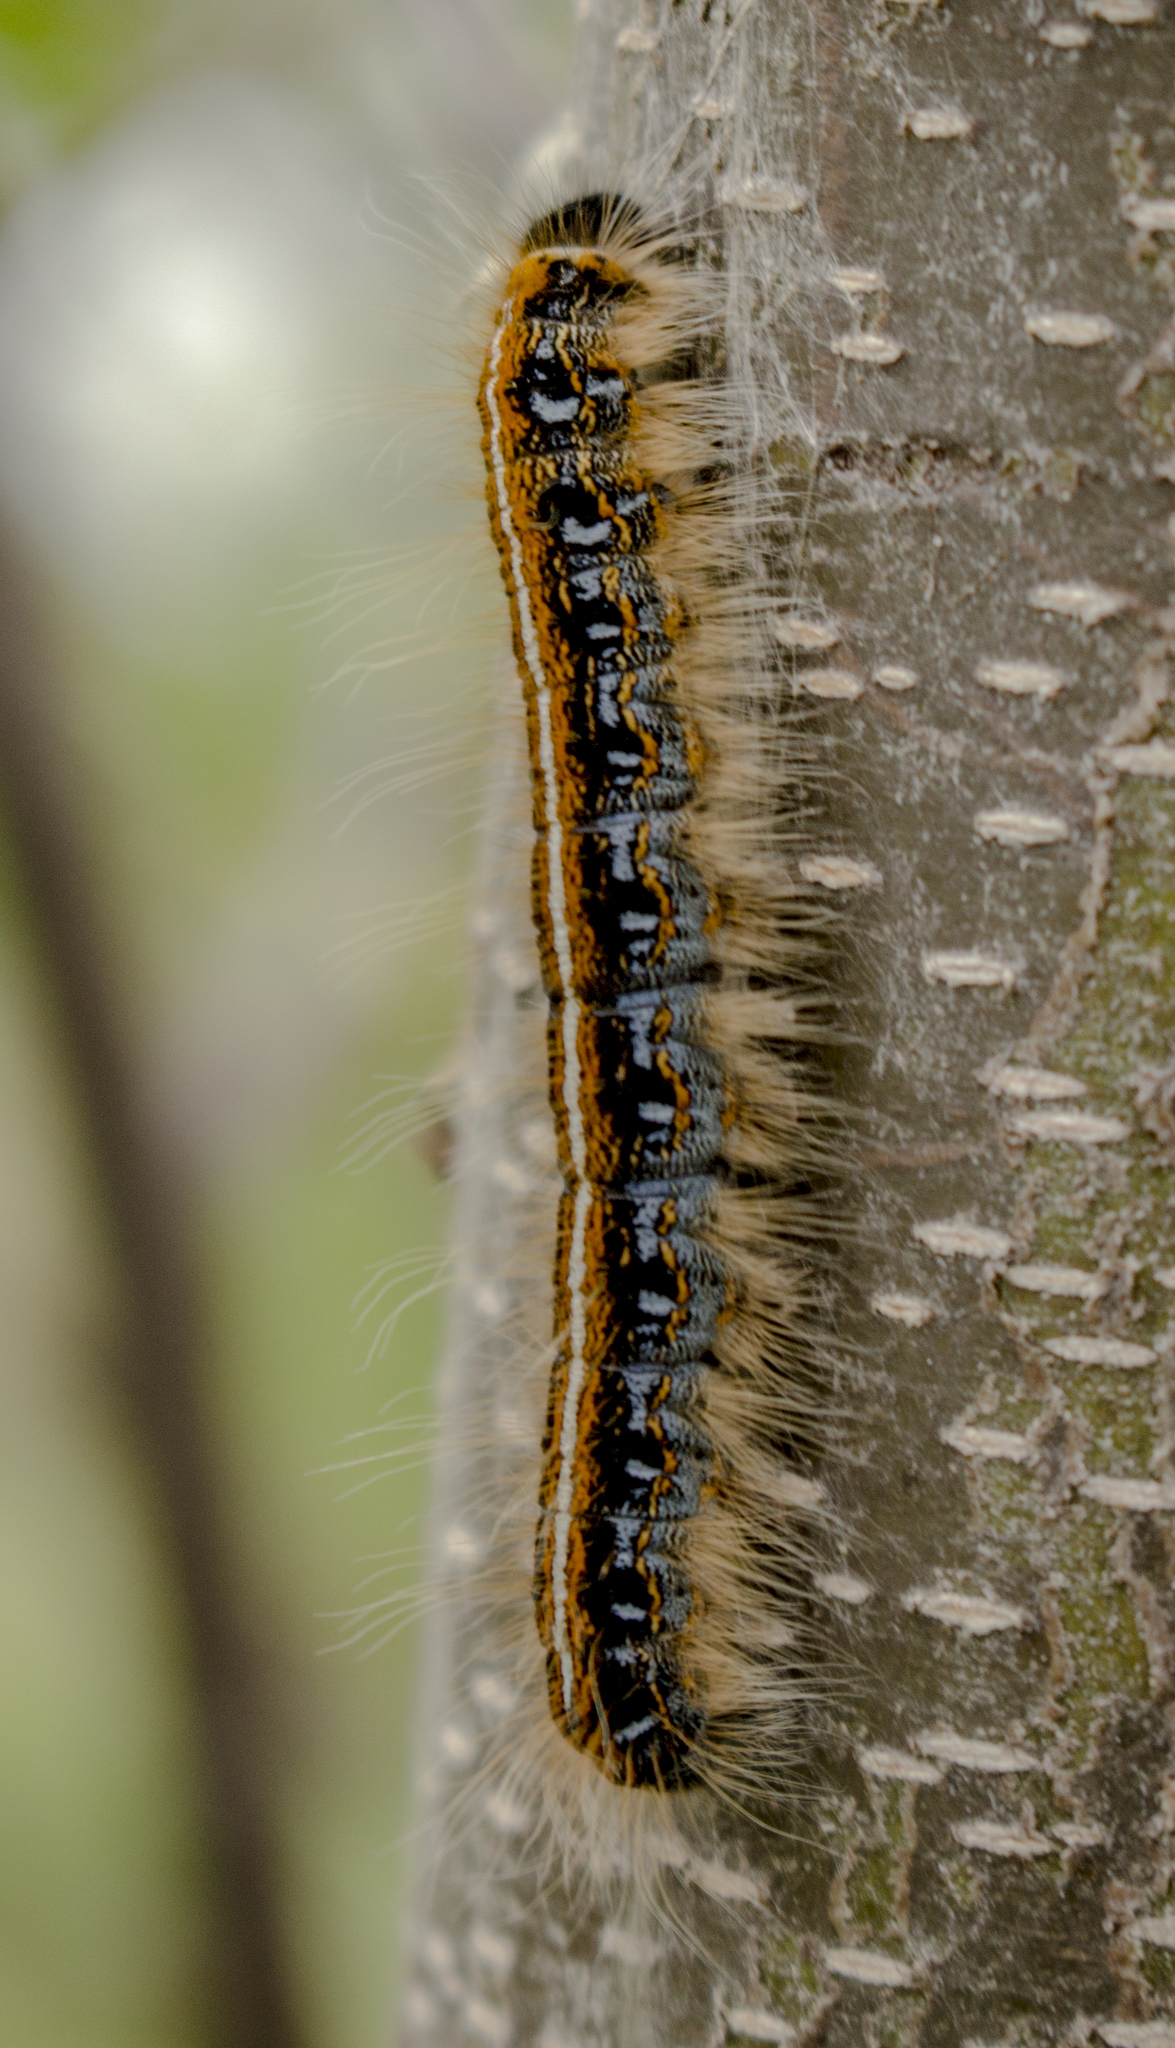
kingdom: Animalia
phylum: Arthropoda
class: Insecta
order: Lepidoptera
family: Lasiocampidae
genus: Malacosoma
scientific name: Malacosoma americana
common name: Eastern tent caterpillar moth
